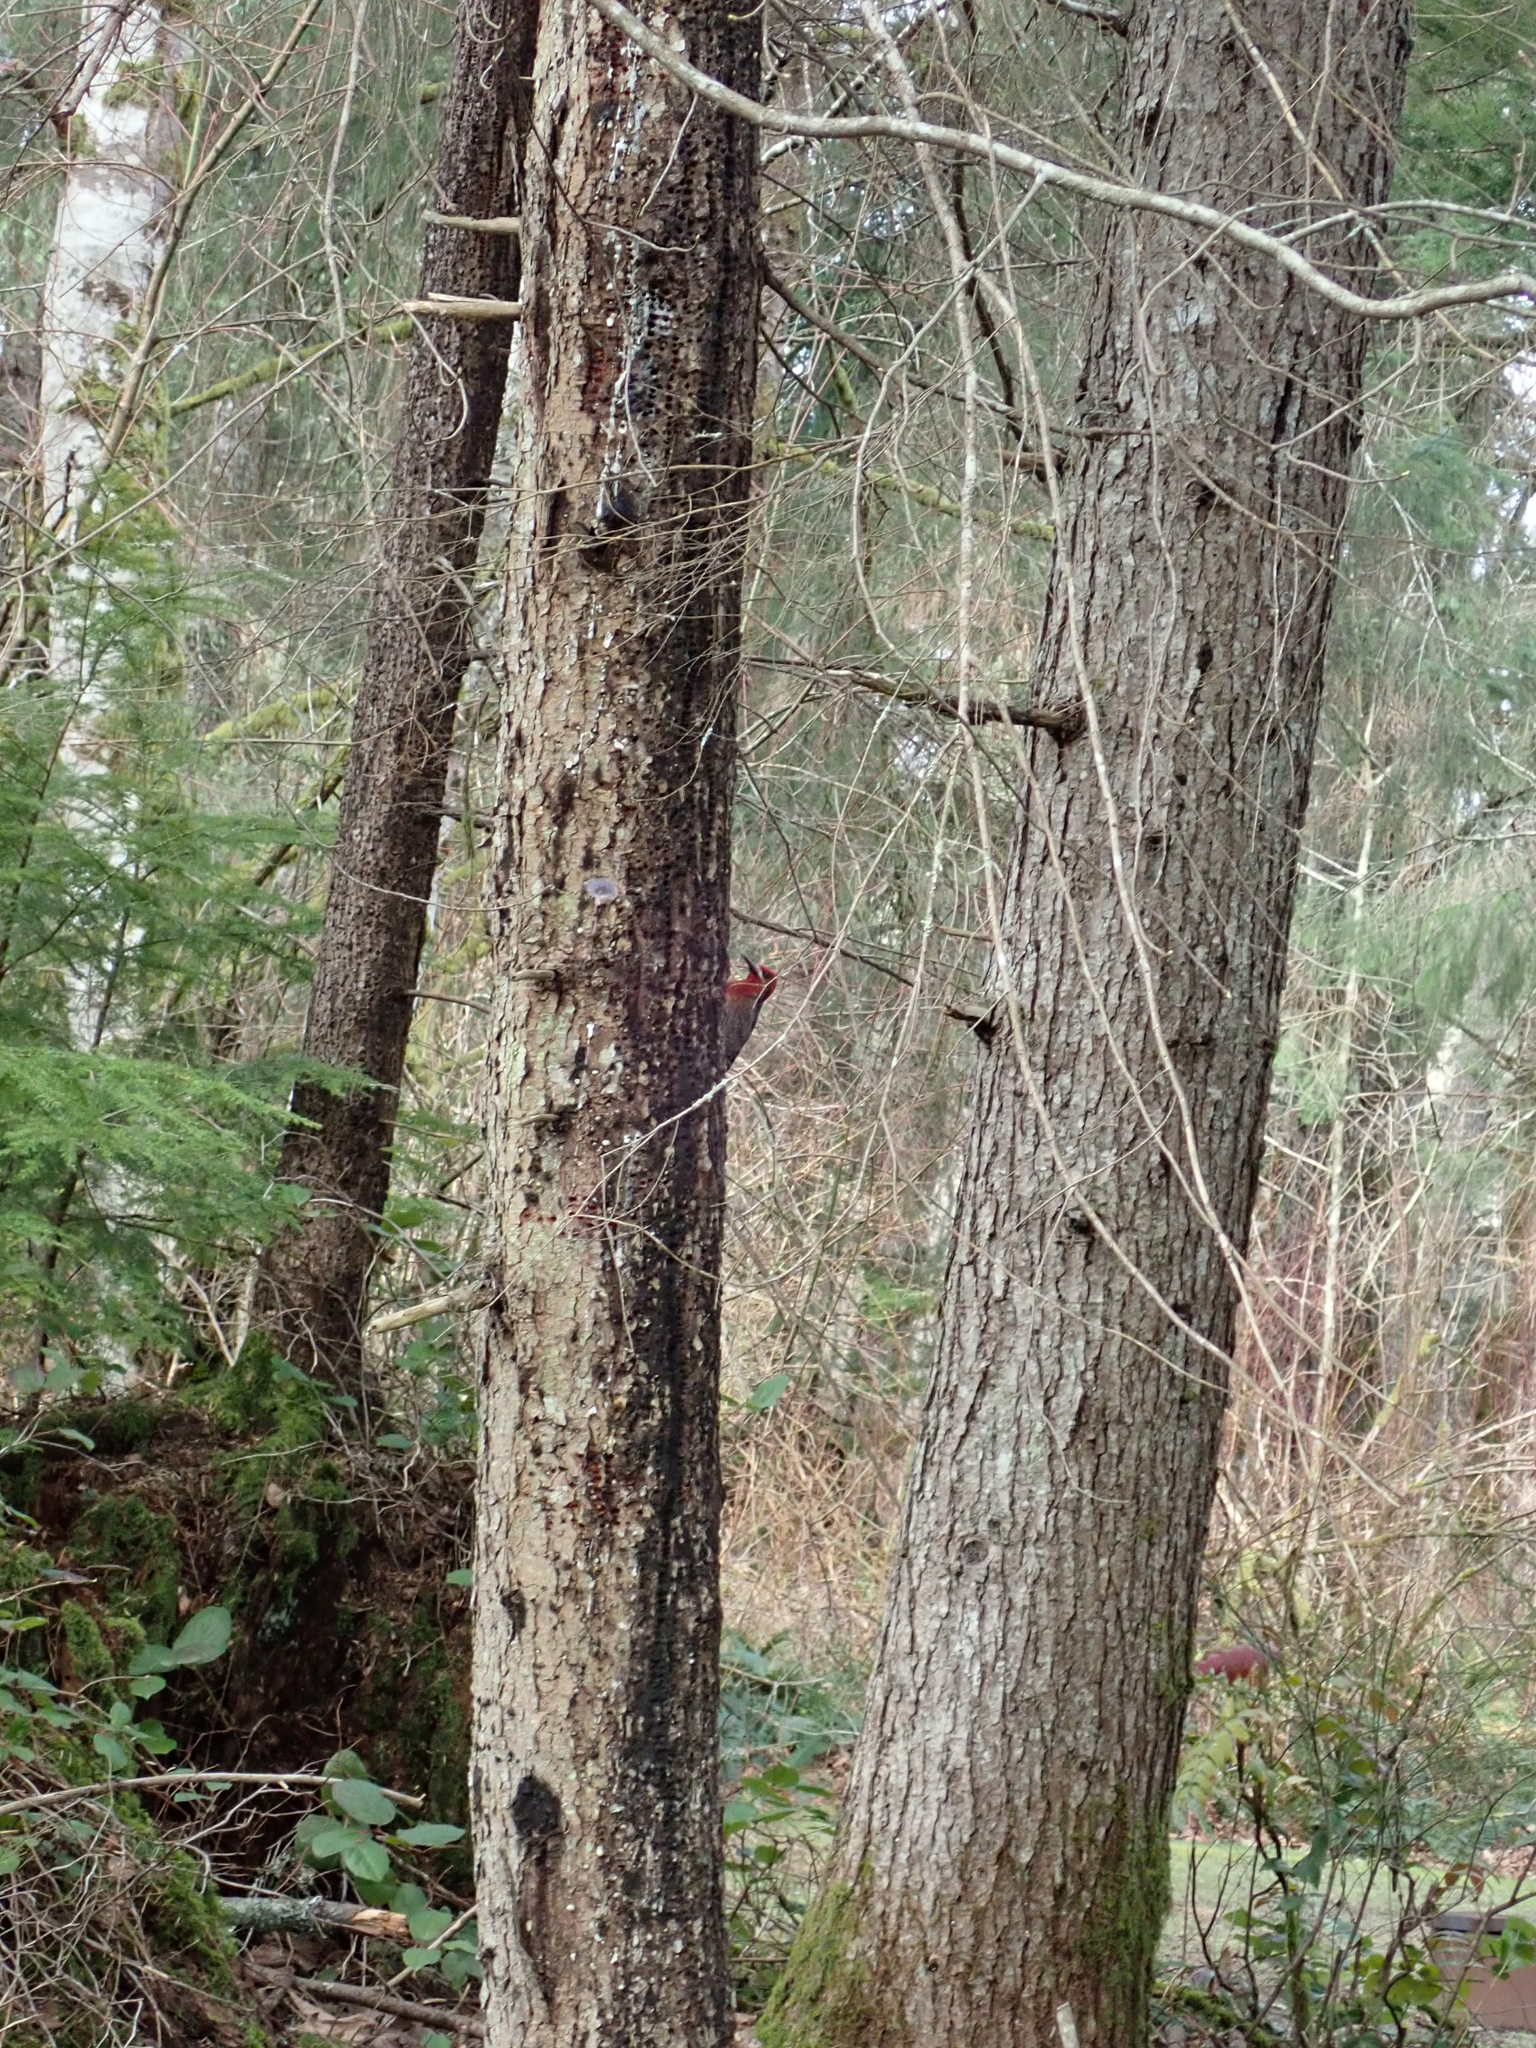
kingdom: Animalia
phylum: Chordata
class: Aves
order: Piciformes
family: Picidae
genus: Sphyrapicus
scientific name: Sphyrapicus ruber
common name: Red-breasted sapsucker
